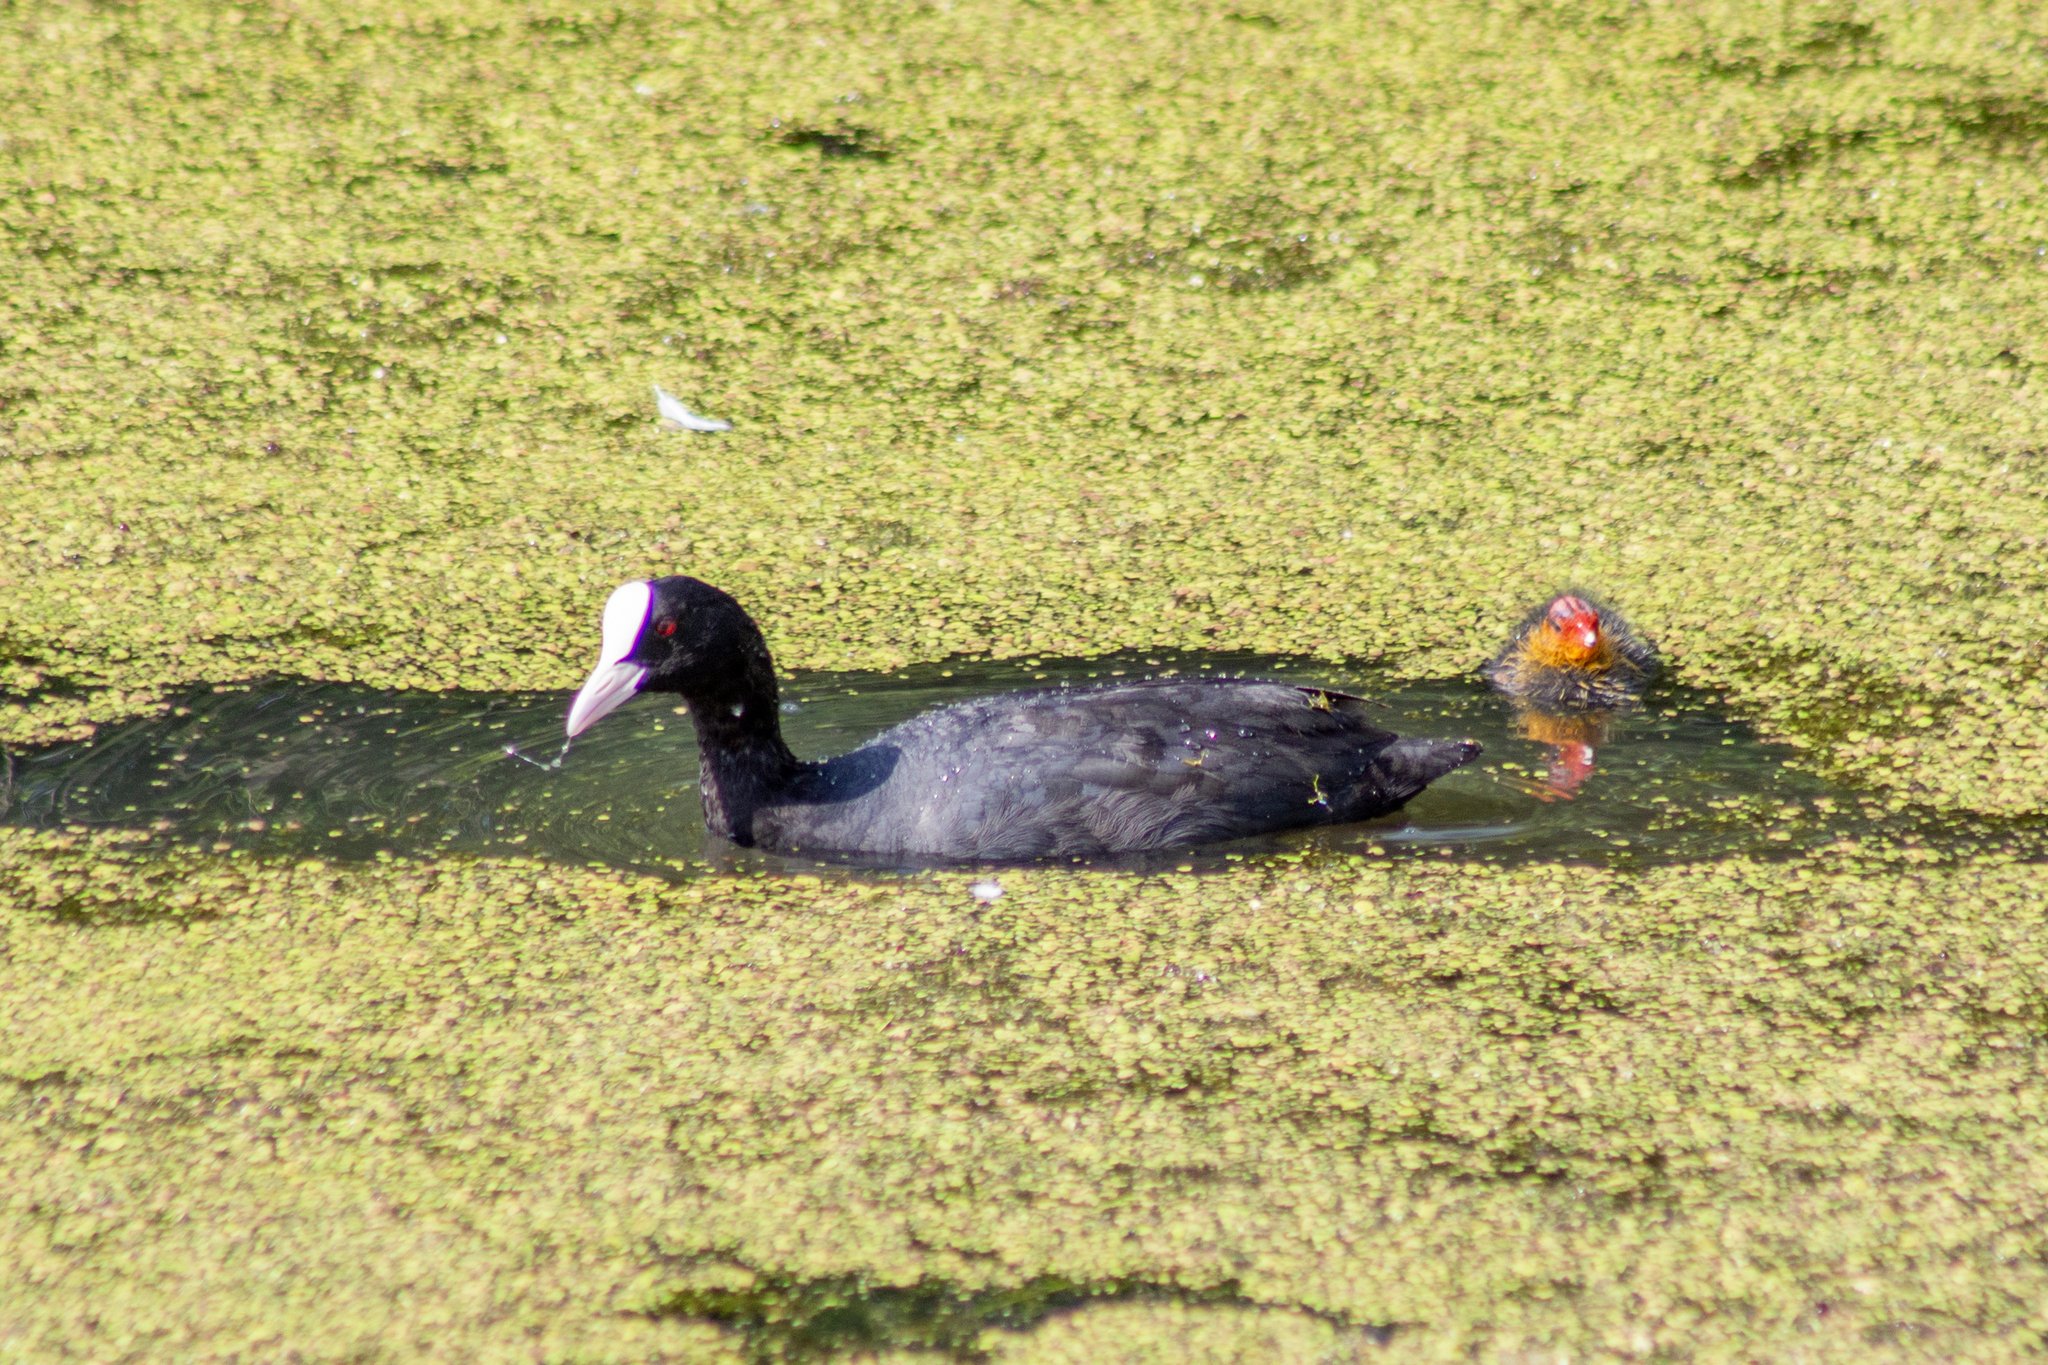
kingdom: Animalia
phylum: Chordata
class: Aves
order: Gruiformes
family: Rallidae
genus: Fulica
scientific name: Fulica atra
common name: Eurasian coot
